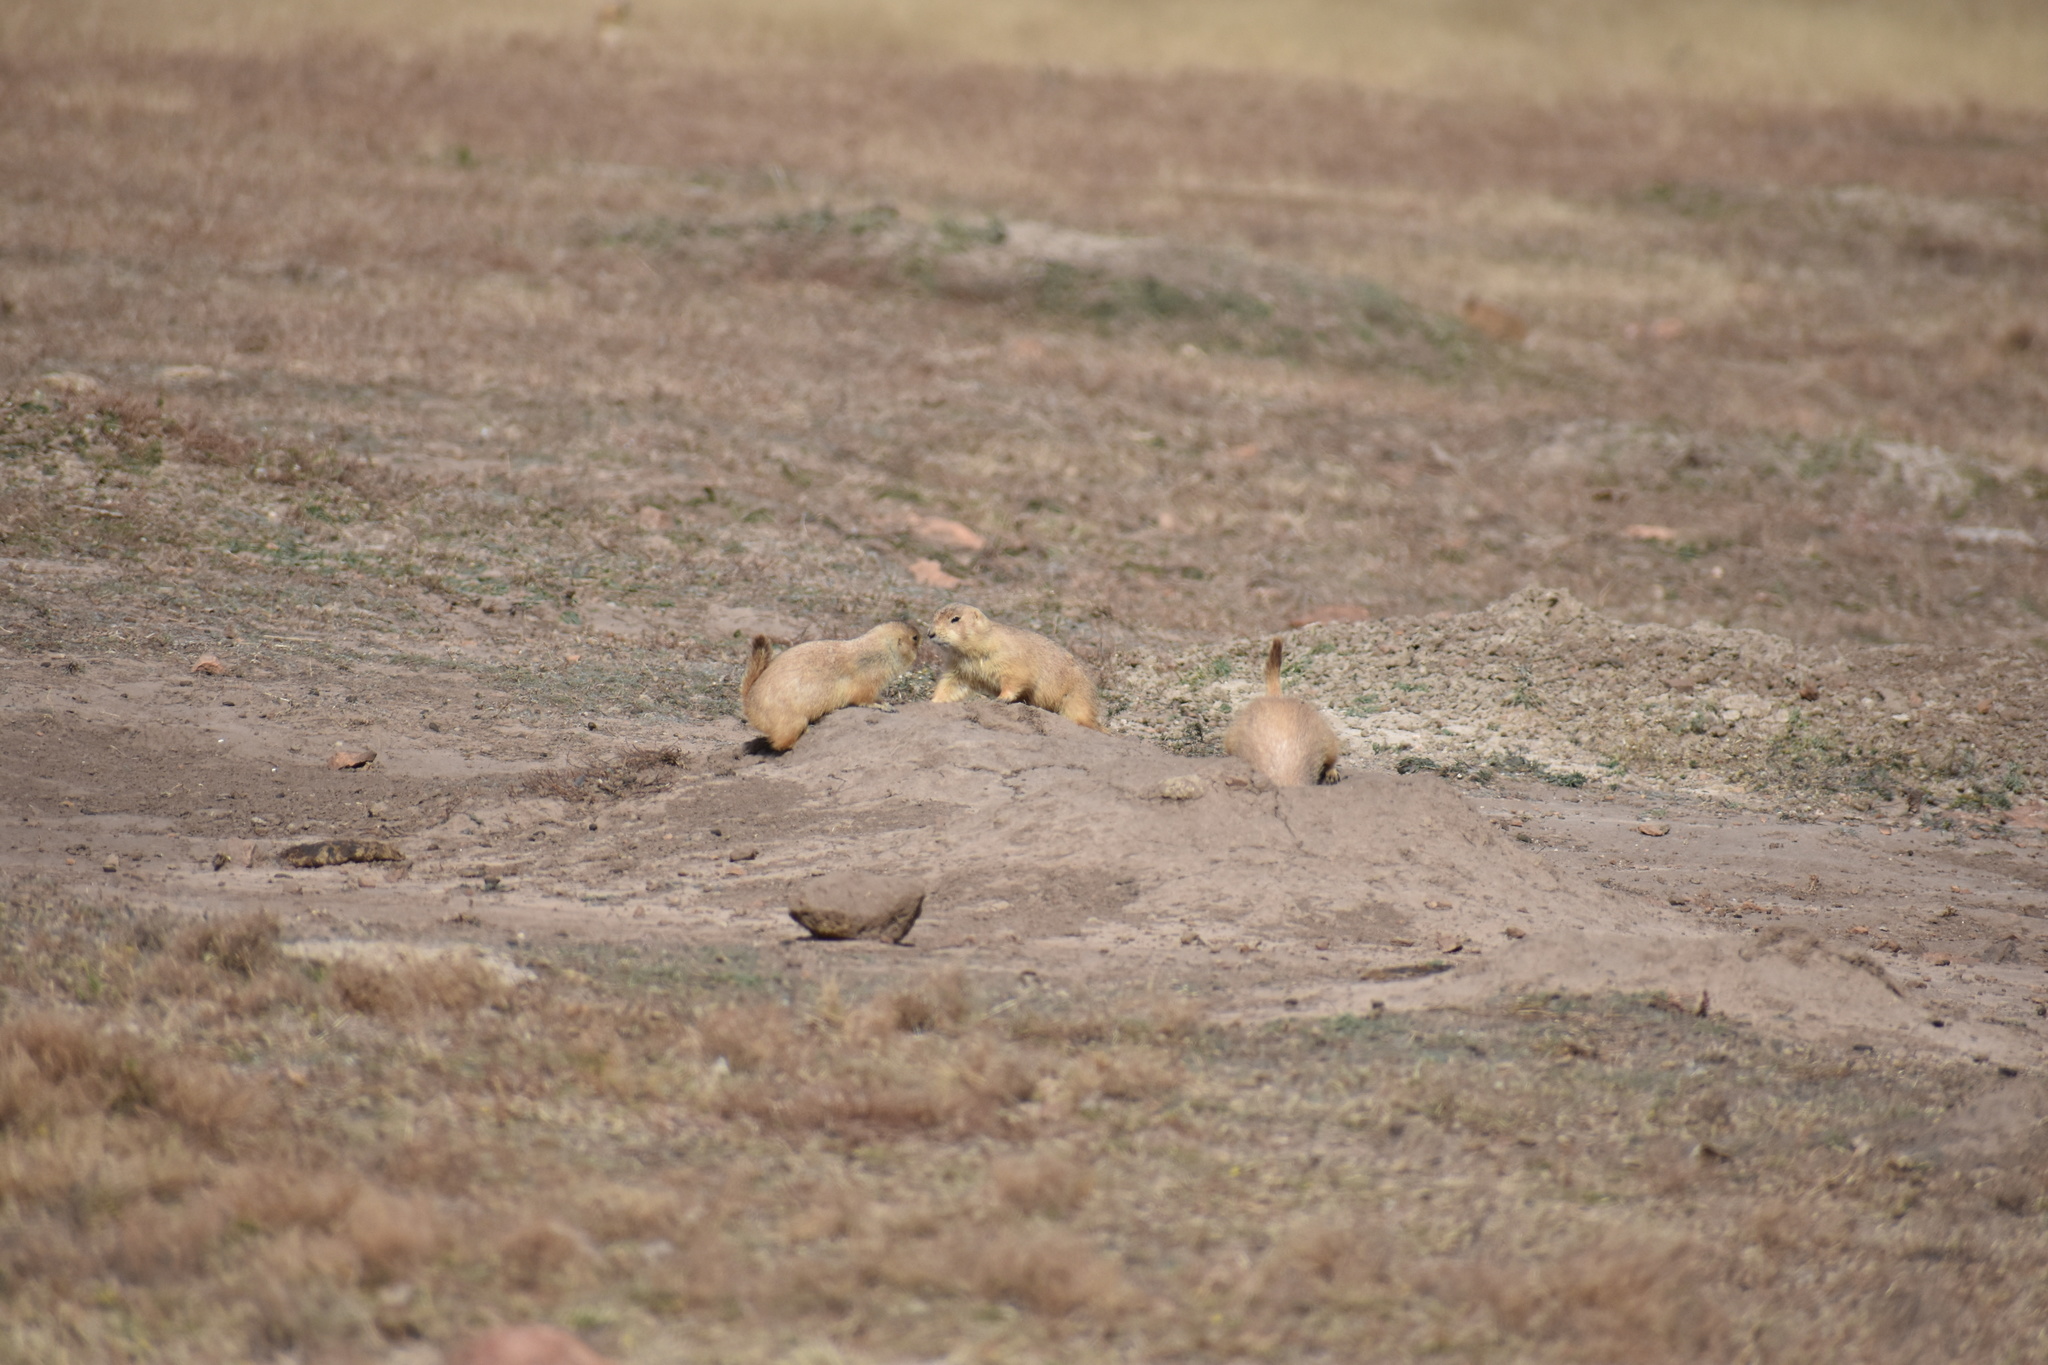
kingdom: Animalia
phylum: Chordata
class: Mammalia
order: Rodentia
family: Sciuridae
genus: Cynomys
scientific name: Cynomys ludovicianus
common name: Black-tailed prairie dog
